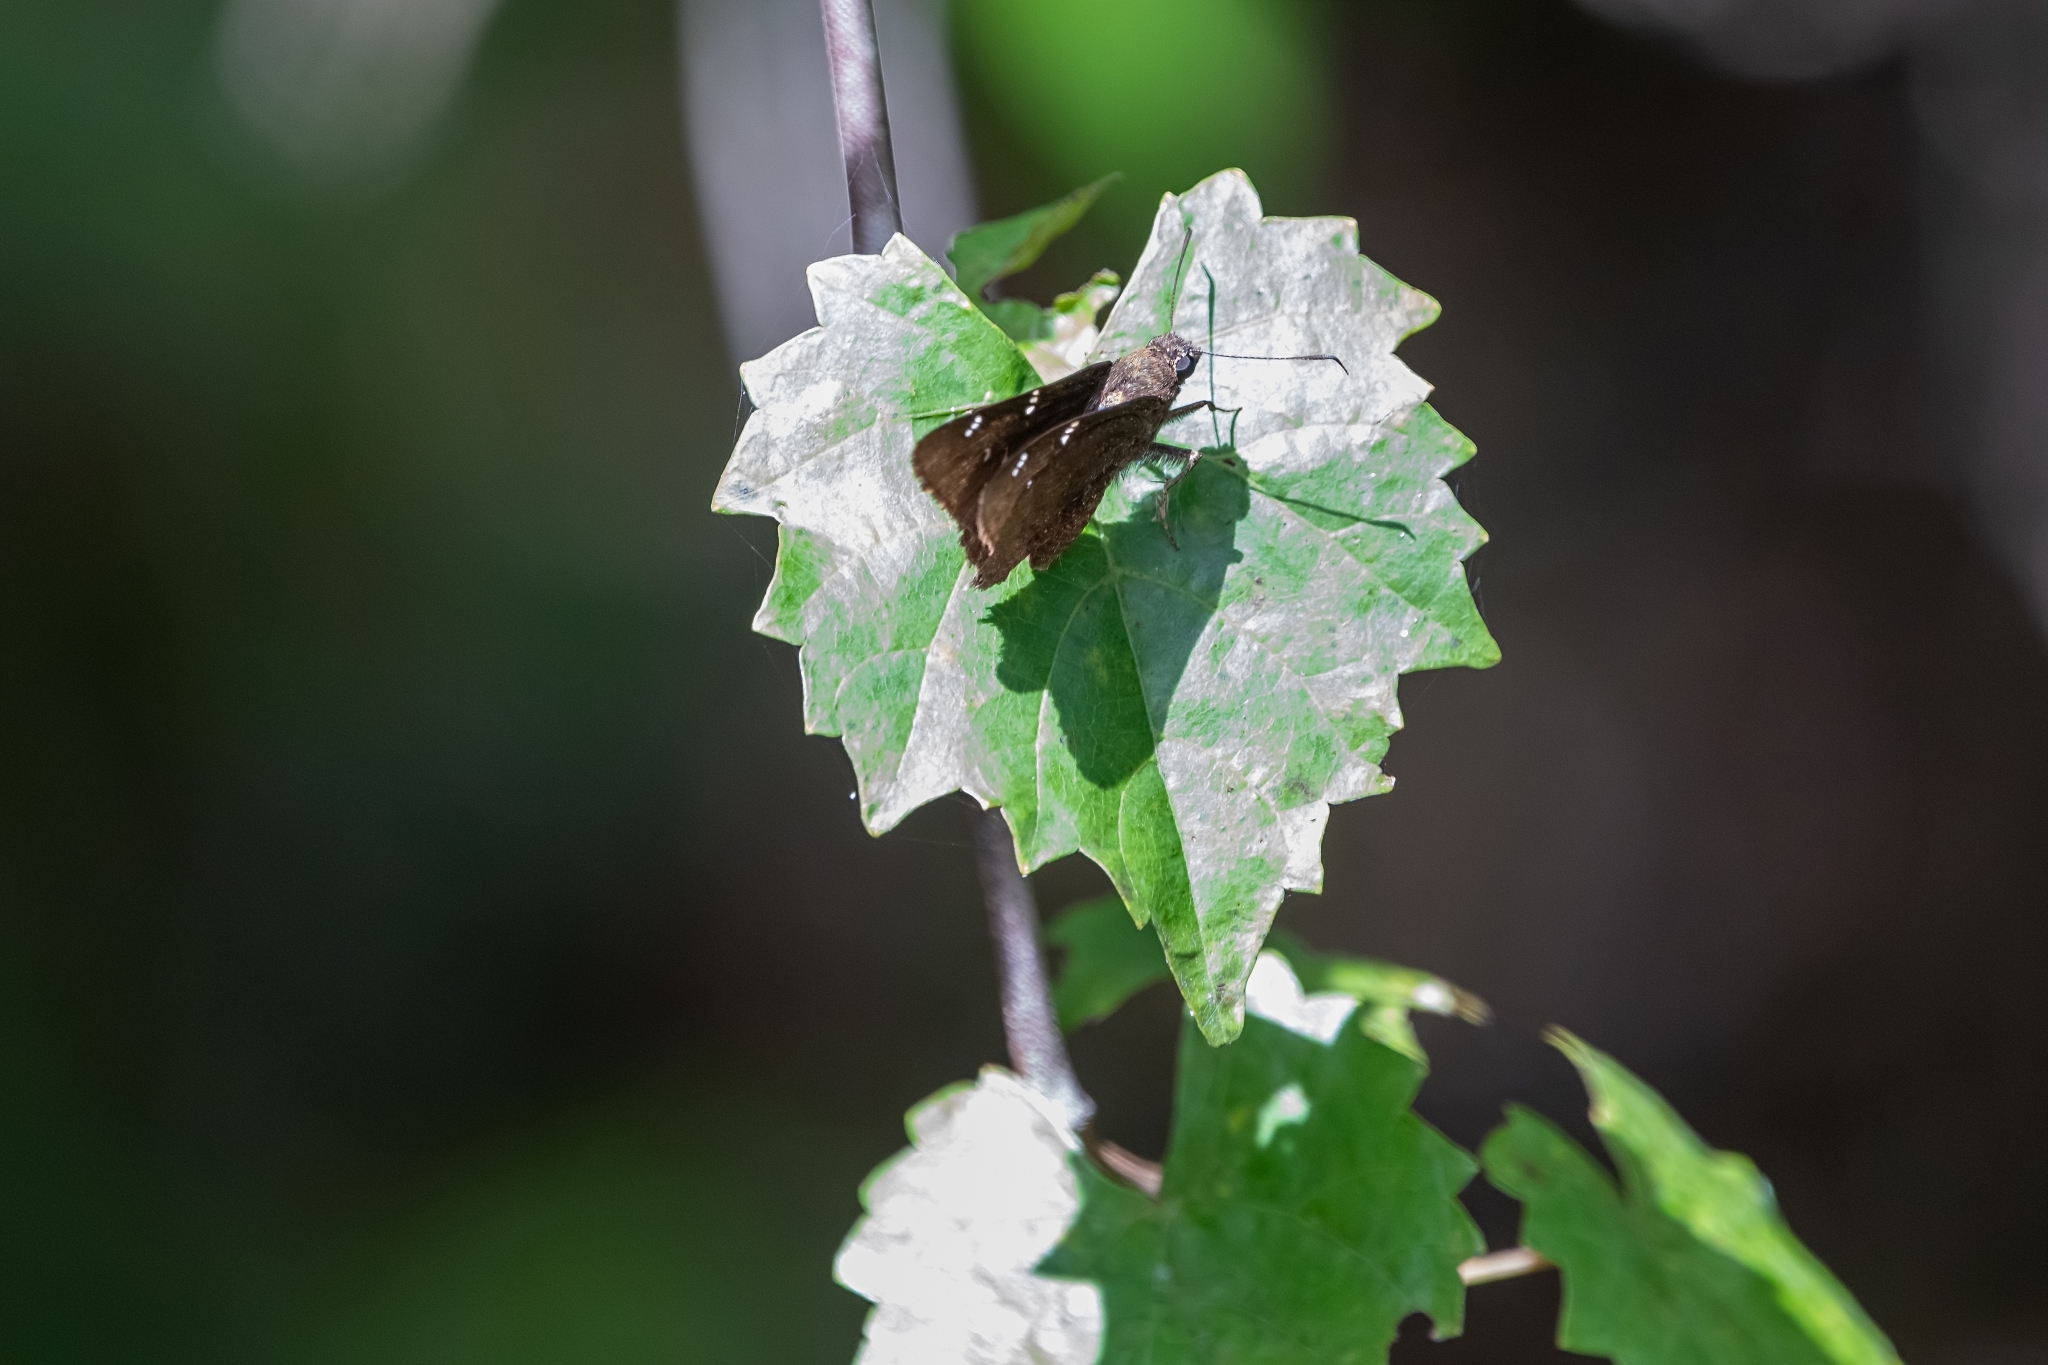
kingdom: Animalia
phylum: Arthropoda
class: Insecta
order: Lepidoptera
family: Hesperiidae
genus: Thorybes
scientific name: Thorybes pylades
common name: Northern cloudywing
